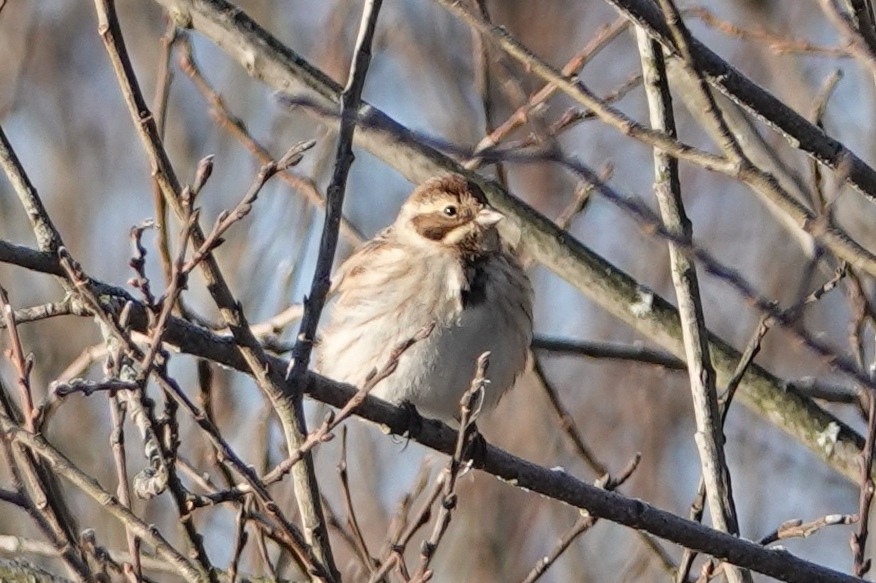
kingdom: Animalia
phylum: Chordata
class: Aves
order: Passeriformes
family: Emberizidae
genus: Emberiza
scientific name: Emberiza schoeniclus
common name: Reed bunting
